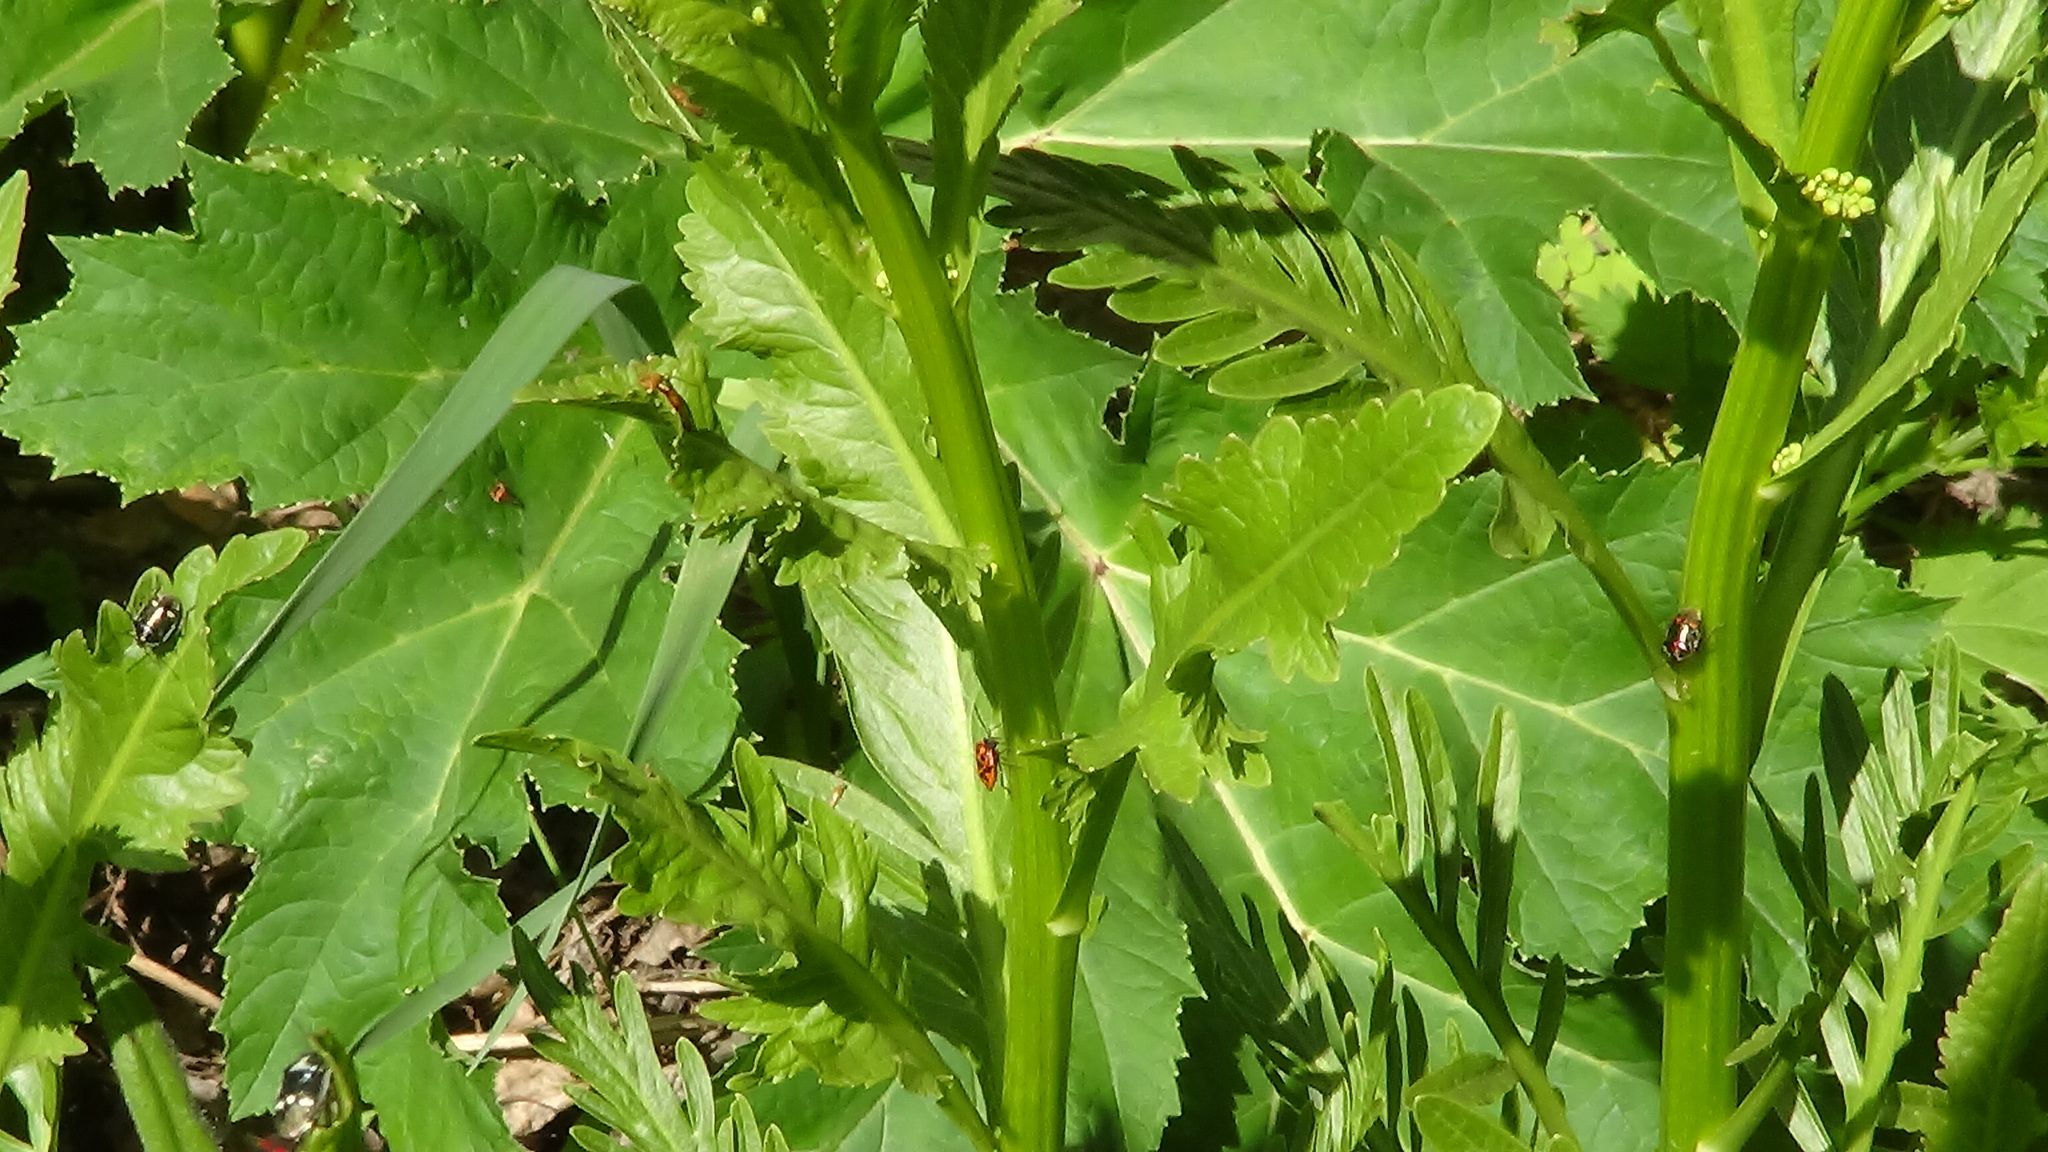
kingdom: Plantae
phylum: Tracheophyta
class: Magnoliopsida
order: Apiales
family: Apiaceae
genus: Heracleum
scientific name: Heracleum sosnowskyi
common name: Sosnowsky's hogweed
